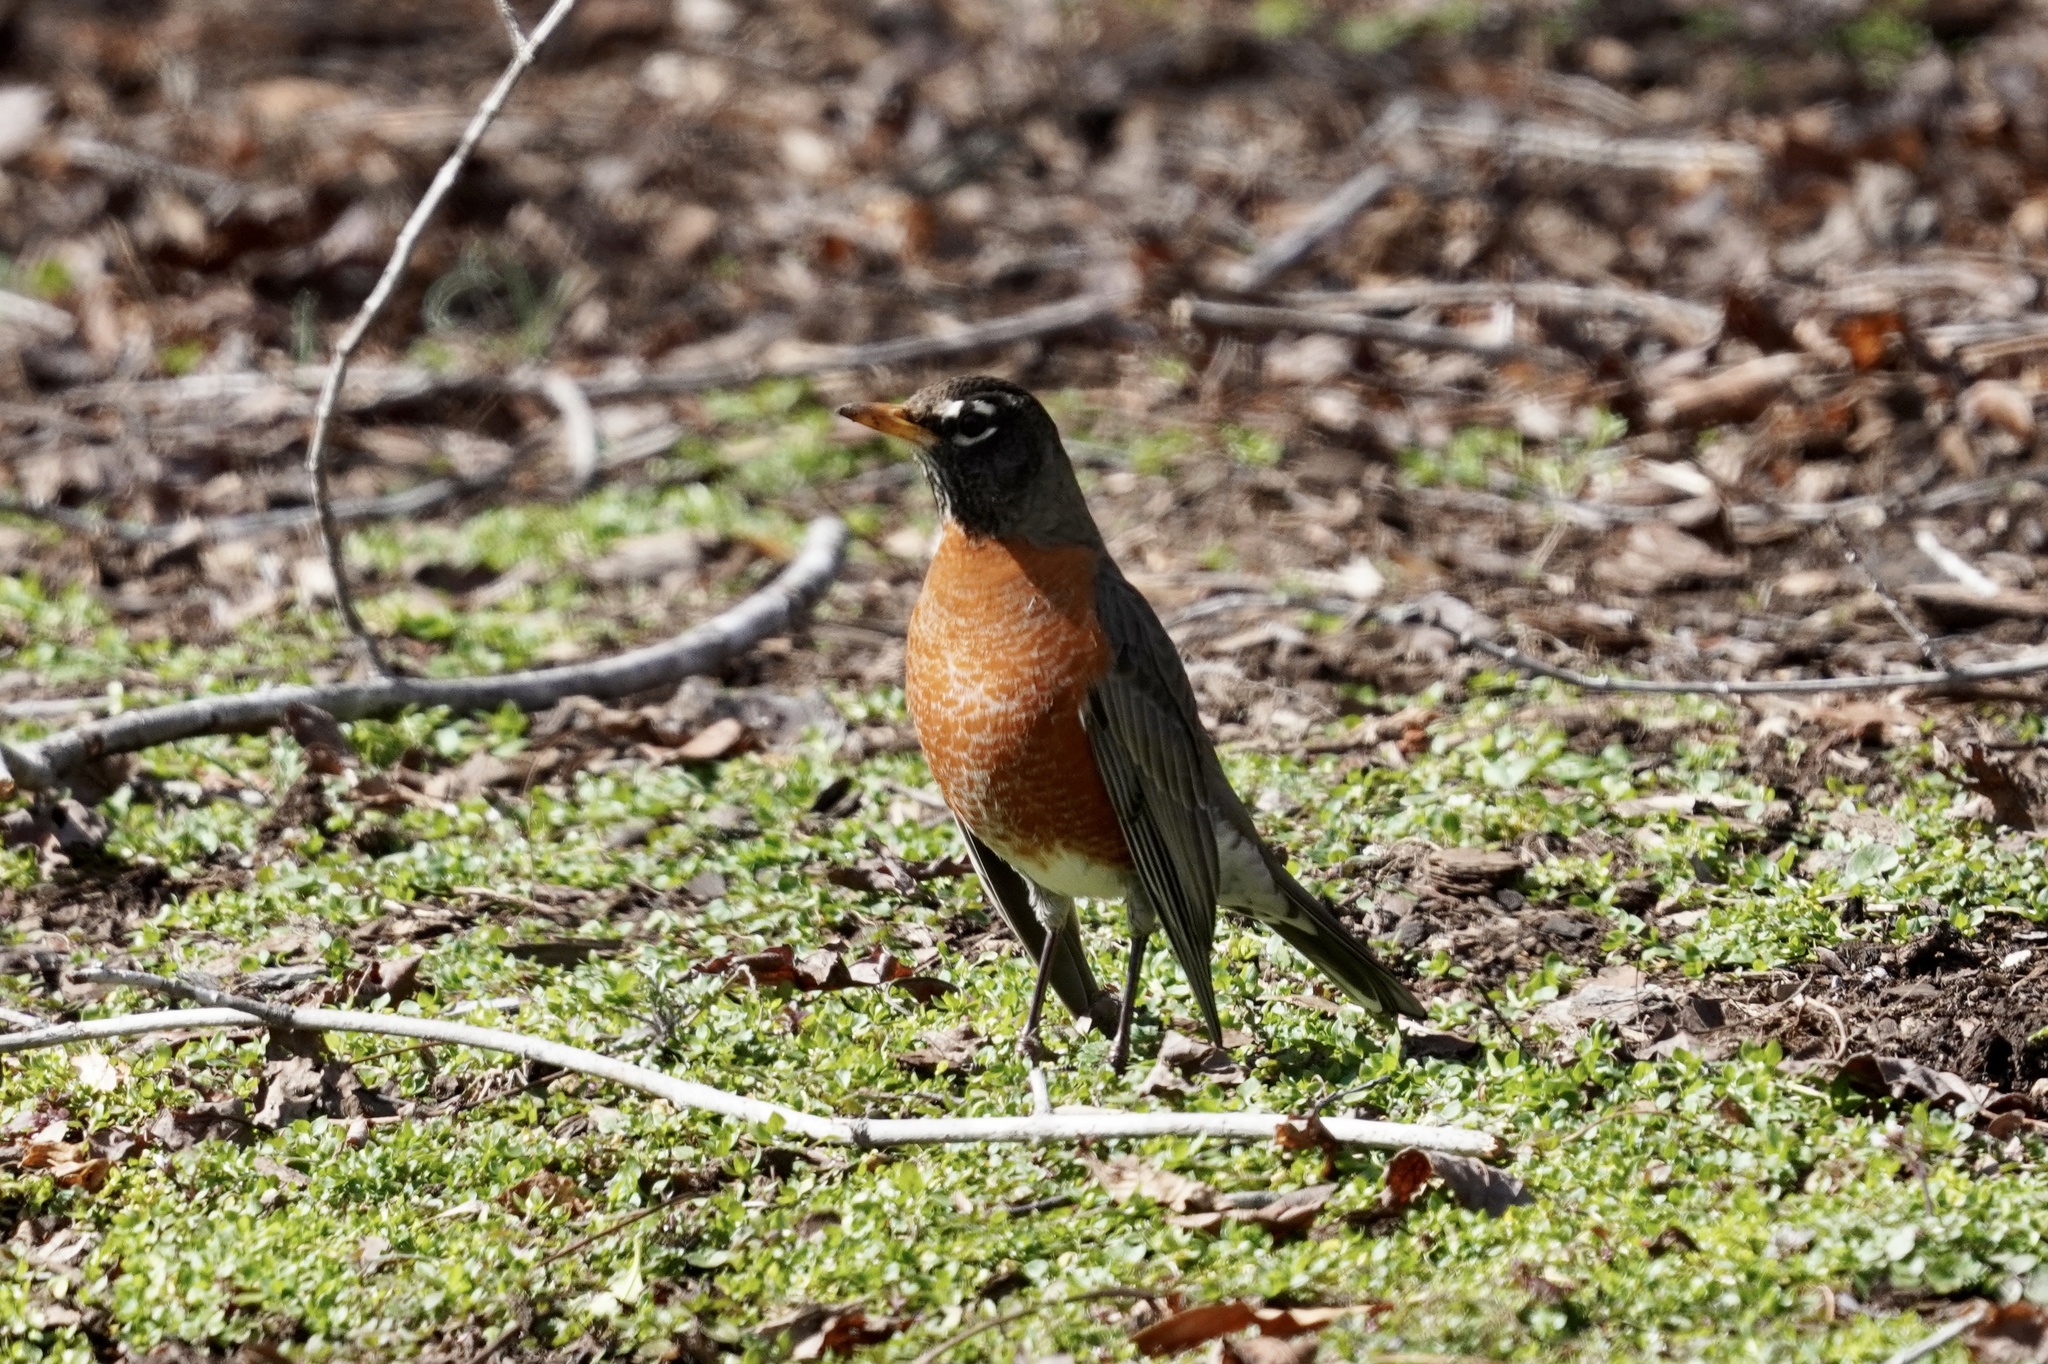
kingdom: Animalia
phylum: Chordata
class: Aves
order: Passeriformes
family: Turdidae
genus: Turdus
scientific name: Turdus migratorius
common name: American robin
